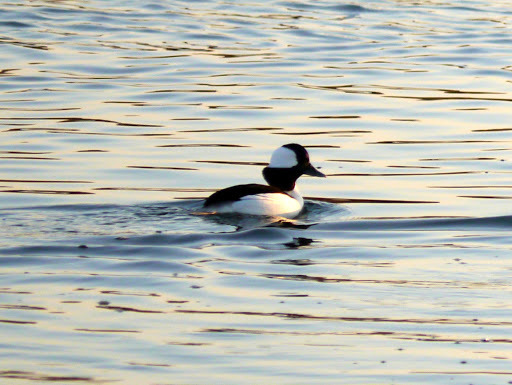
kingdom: Animalia
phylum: Chordata
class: Aves
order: Anseriformes
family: Anatidae
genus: Bucephala
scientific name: Bucephala albeola
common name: Bufflehead
